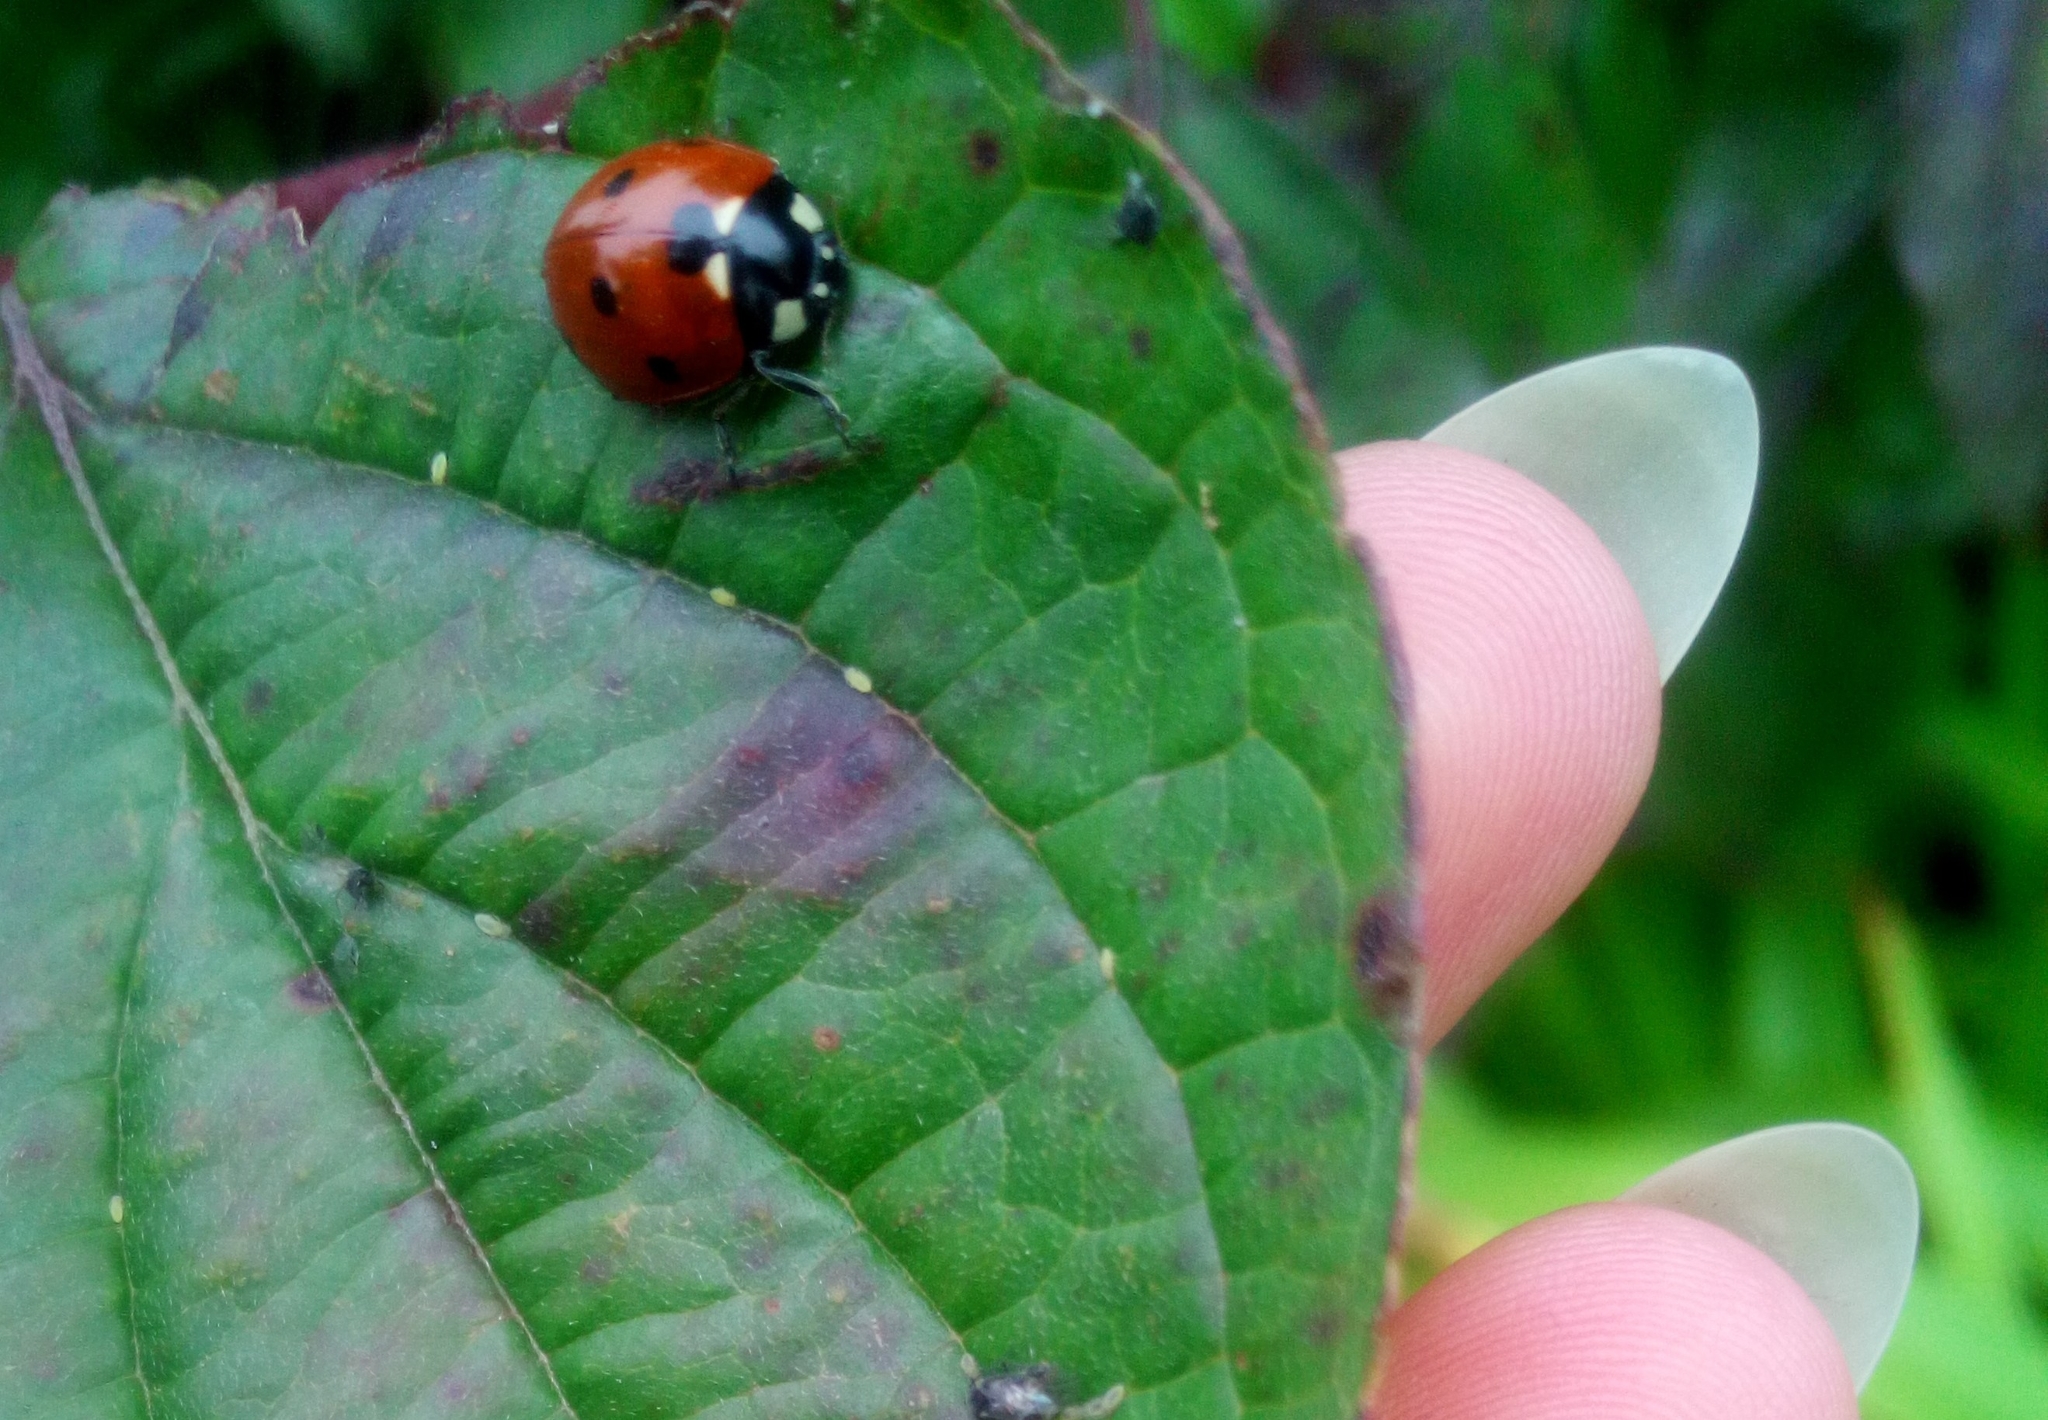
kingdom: Animalia
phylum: Arthropoda
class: Insecta
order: Coleoptera
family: Coccinellidae
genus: Coccinella
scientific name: Coccinella septempunctata
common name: Sevenspotted lady beetle
